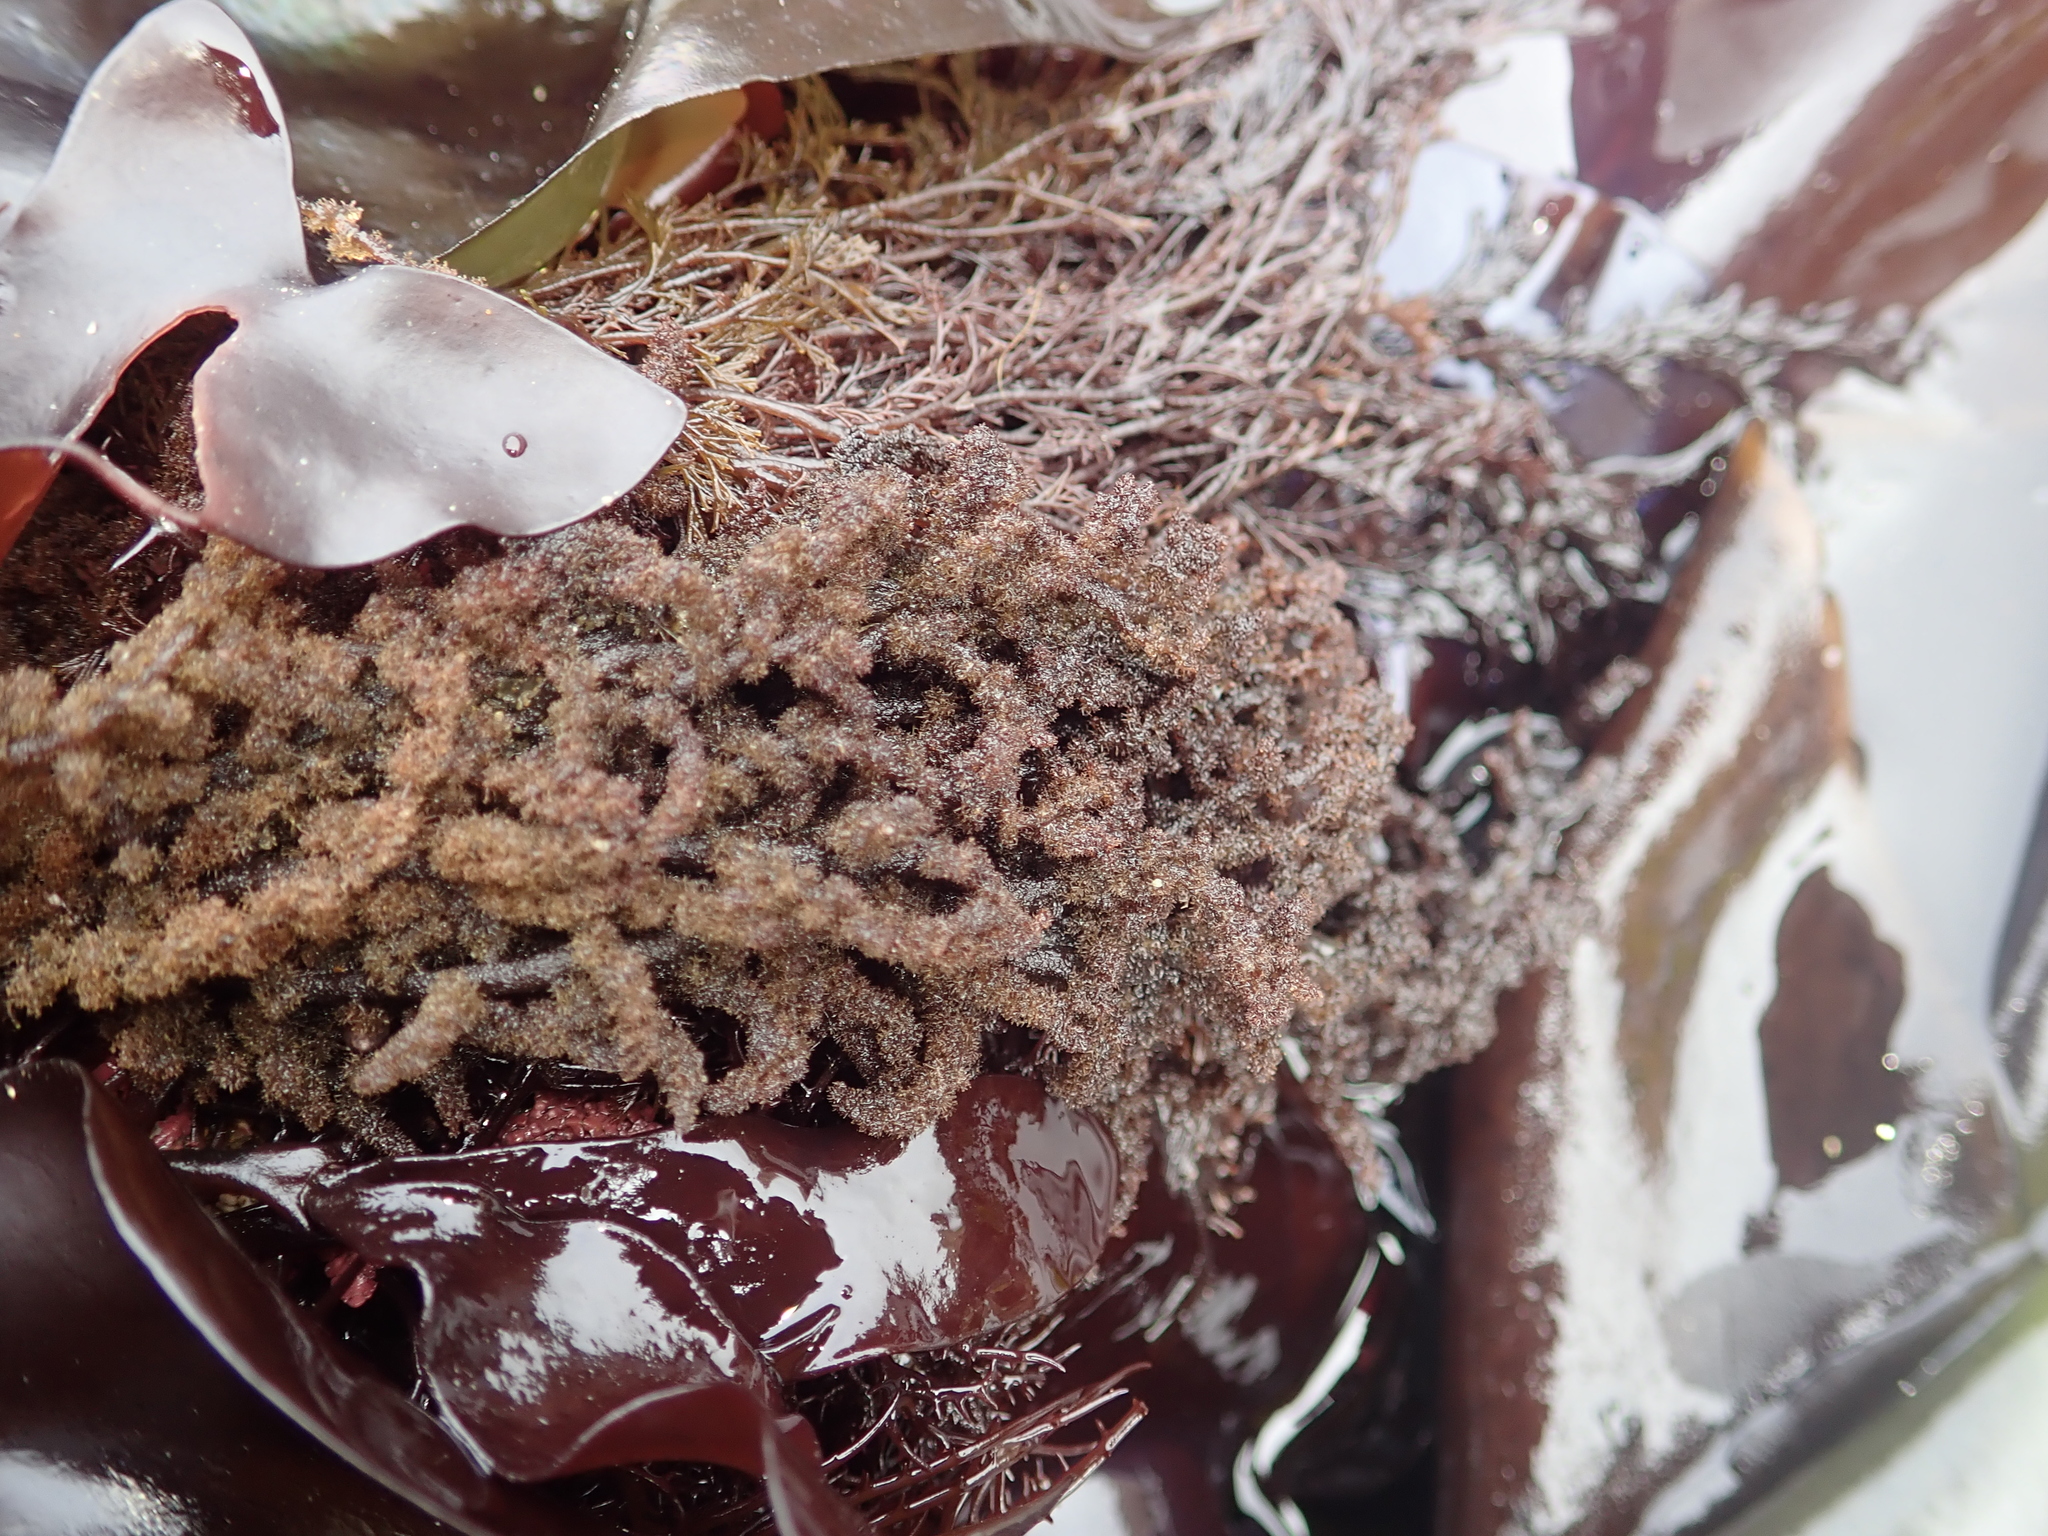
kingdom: Plantae
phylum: Rhodophyta
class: Florideophyceae
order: Ceramiales
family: Callithamniaceae
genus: Callithamnion
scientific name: Callithamnion pikeanum
